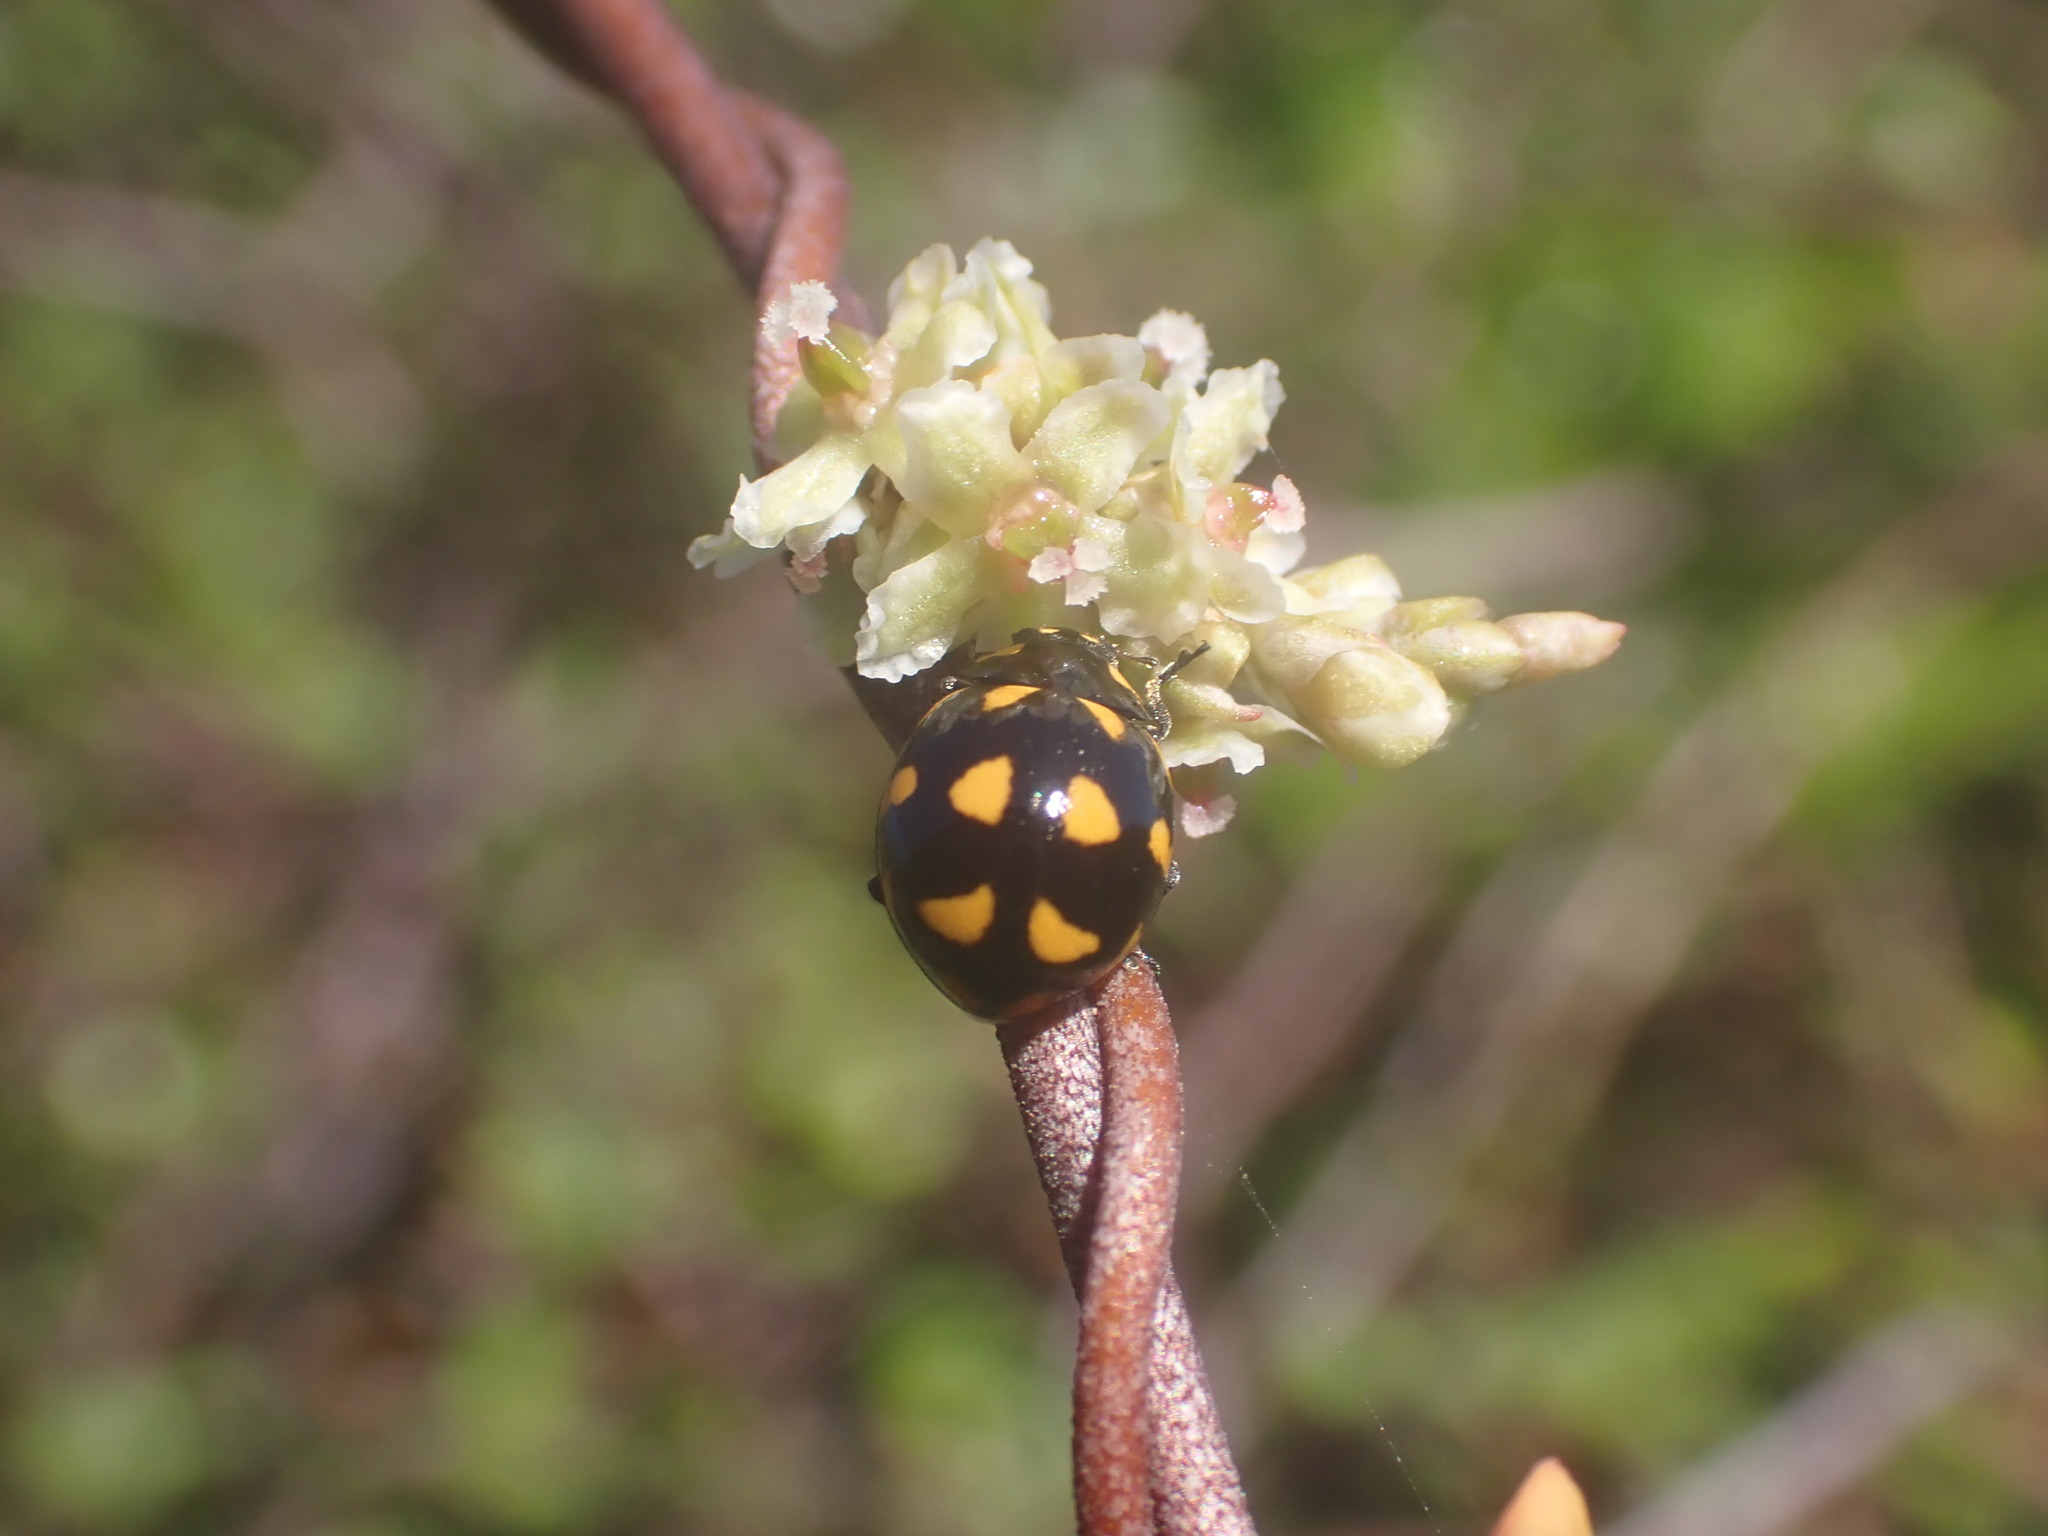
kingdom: Animalia
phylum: Arthropoda
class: Insecta
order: Coleoptera
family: Coccinellidae
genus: Coccinella
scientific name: Coccinella leonina
